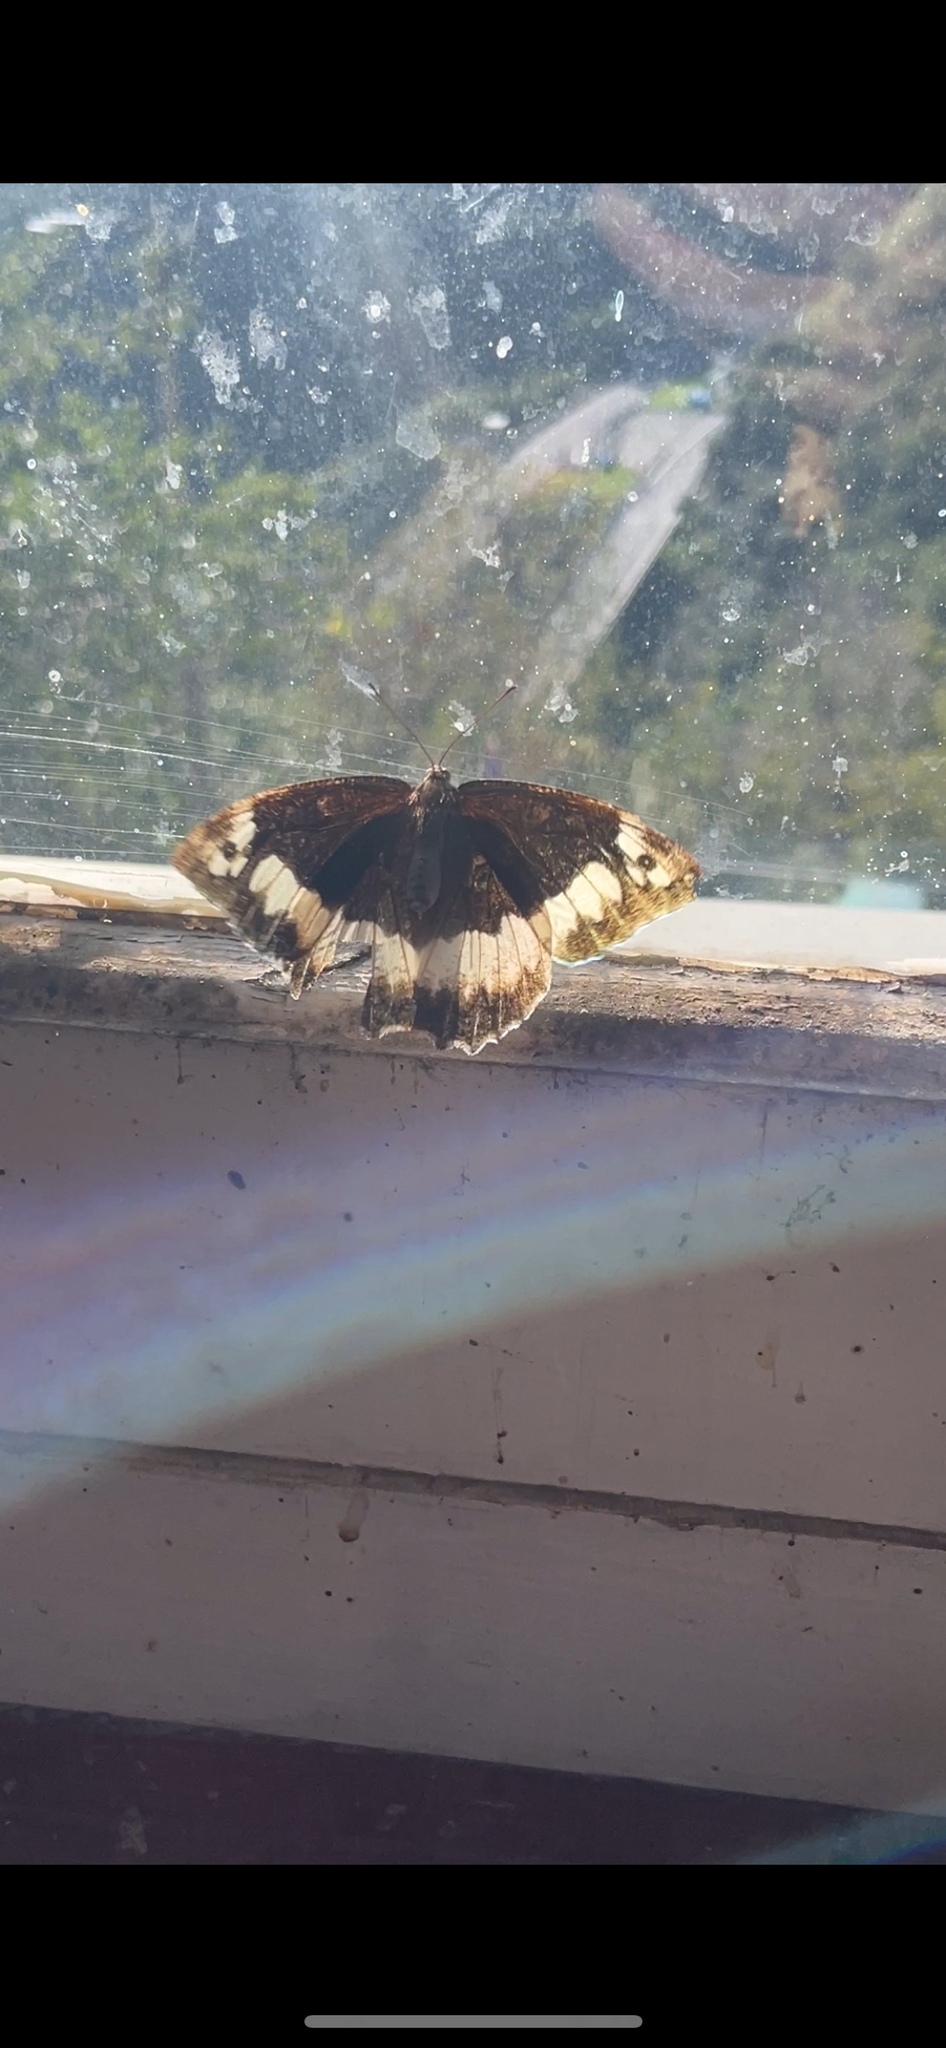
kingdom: Animalia
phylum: Arthropoda
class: Insecta
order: Lepidoptera
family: Lycaenidae
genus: Loweia
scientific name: Loweia tityrus
